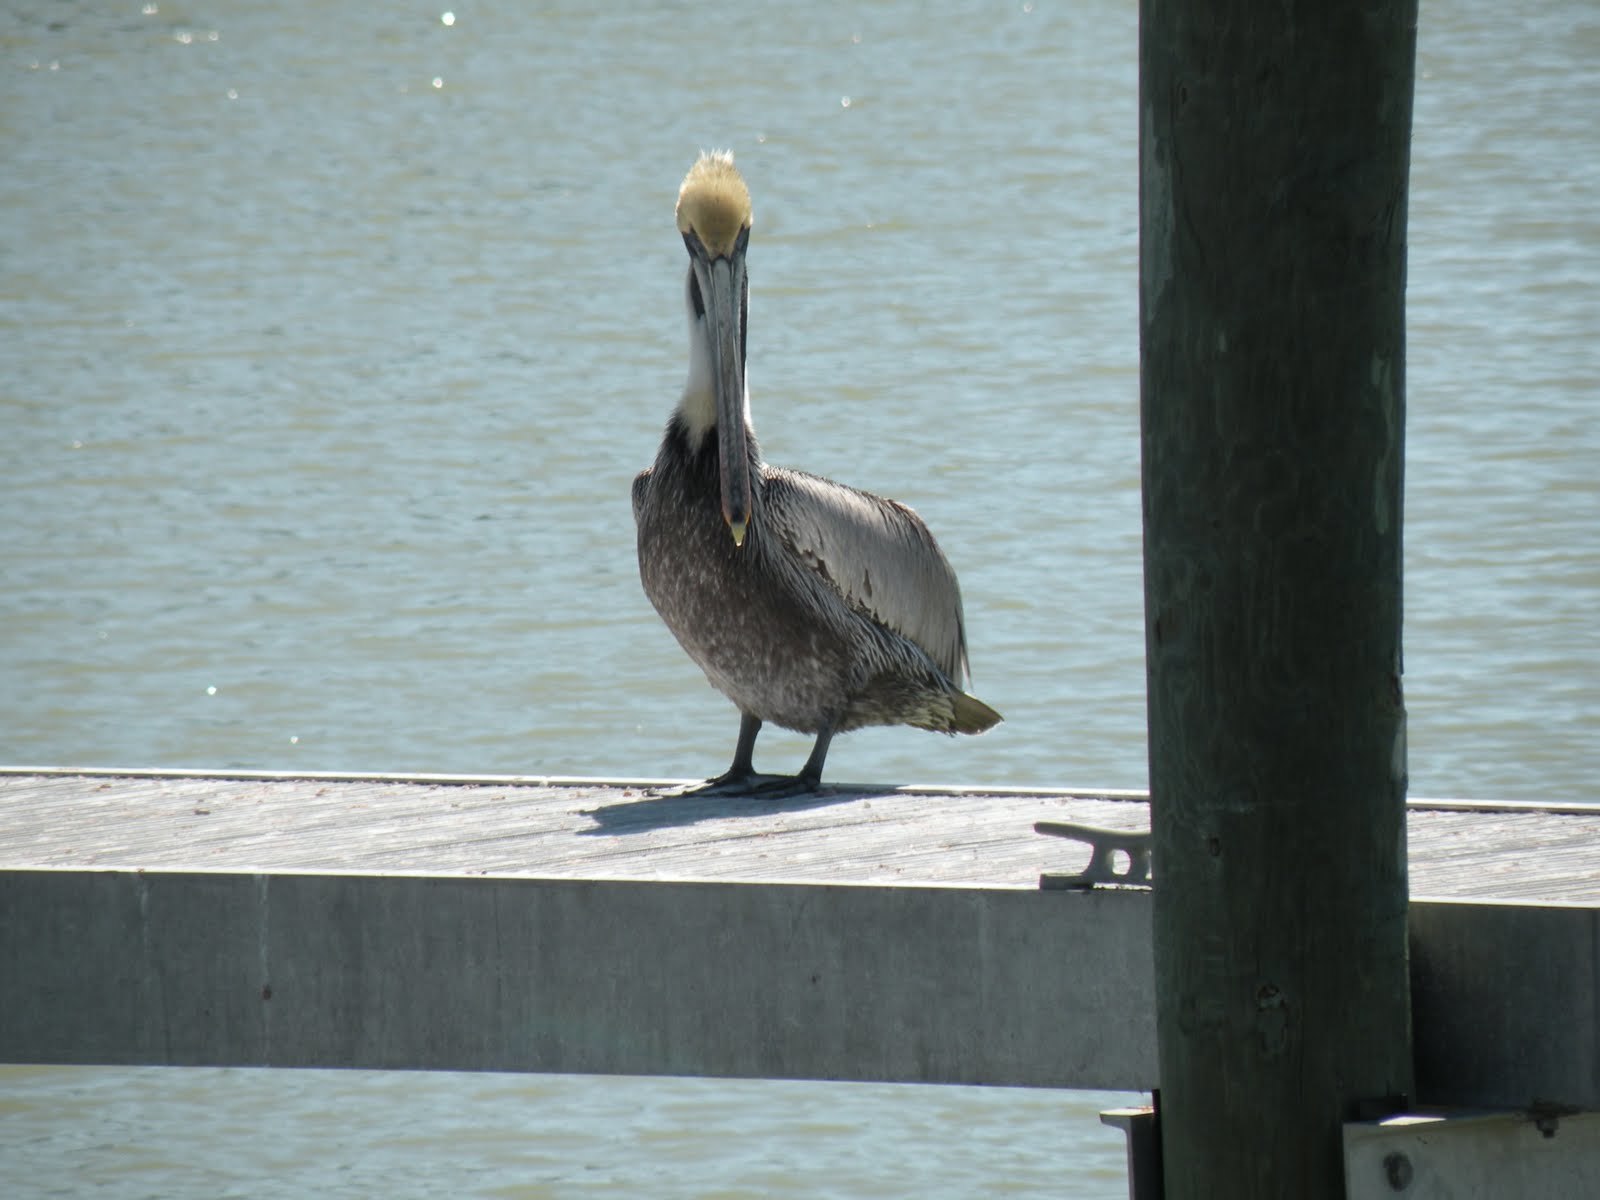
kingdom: Animalia
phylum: Chordata
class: Aves
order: Pelecaniformes
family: Pelecanidae
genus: Pelecanus
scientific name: Pelecanus occidentalis
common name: Brown pelican
